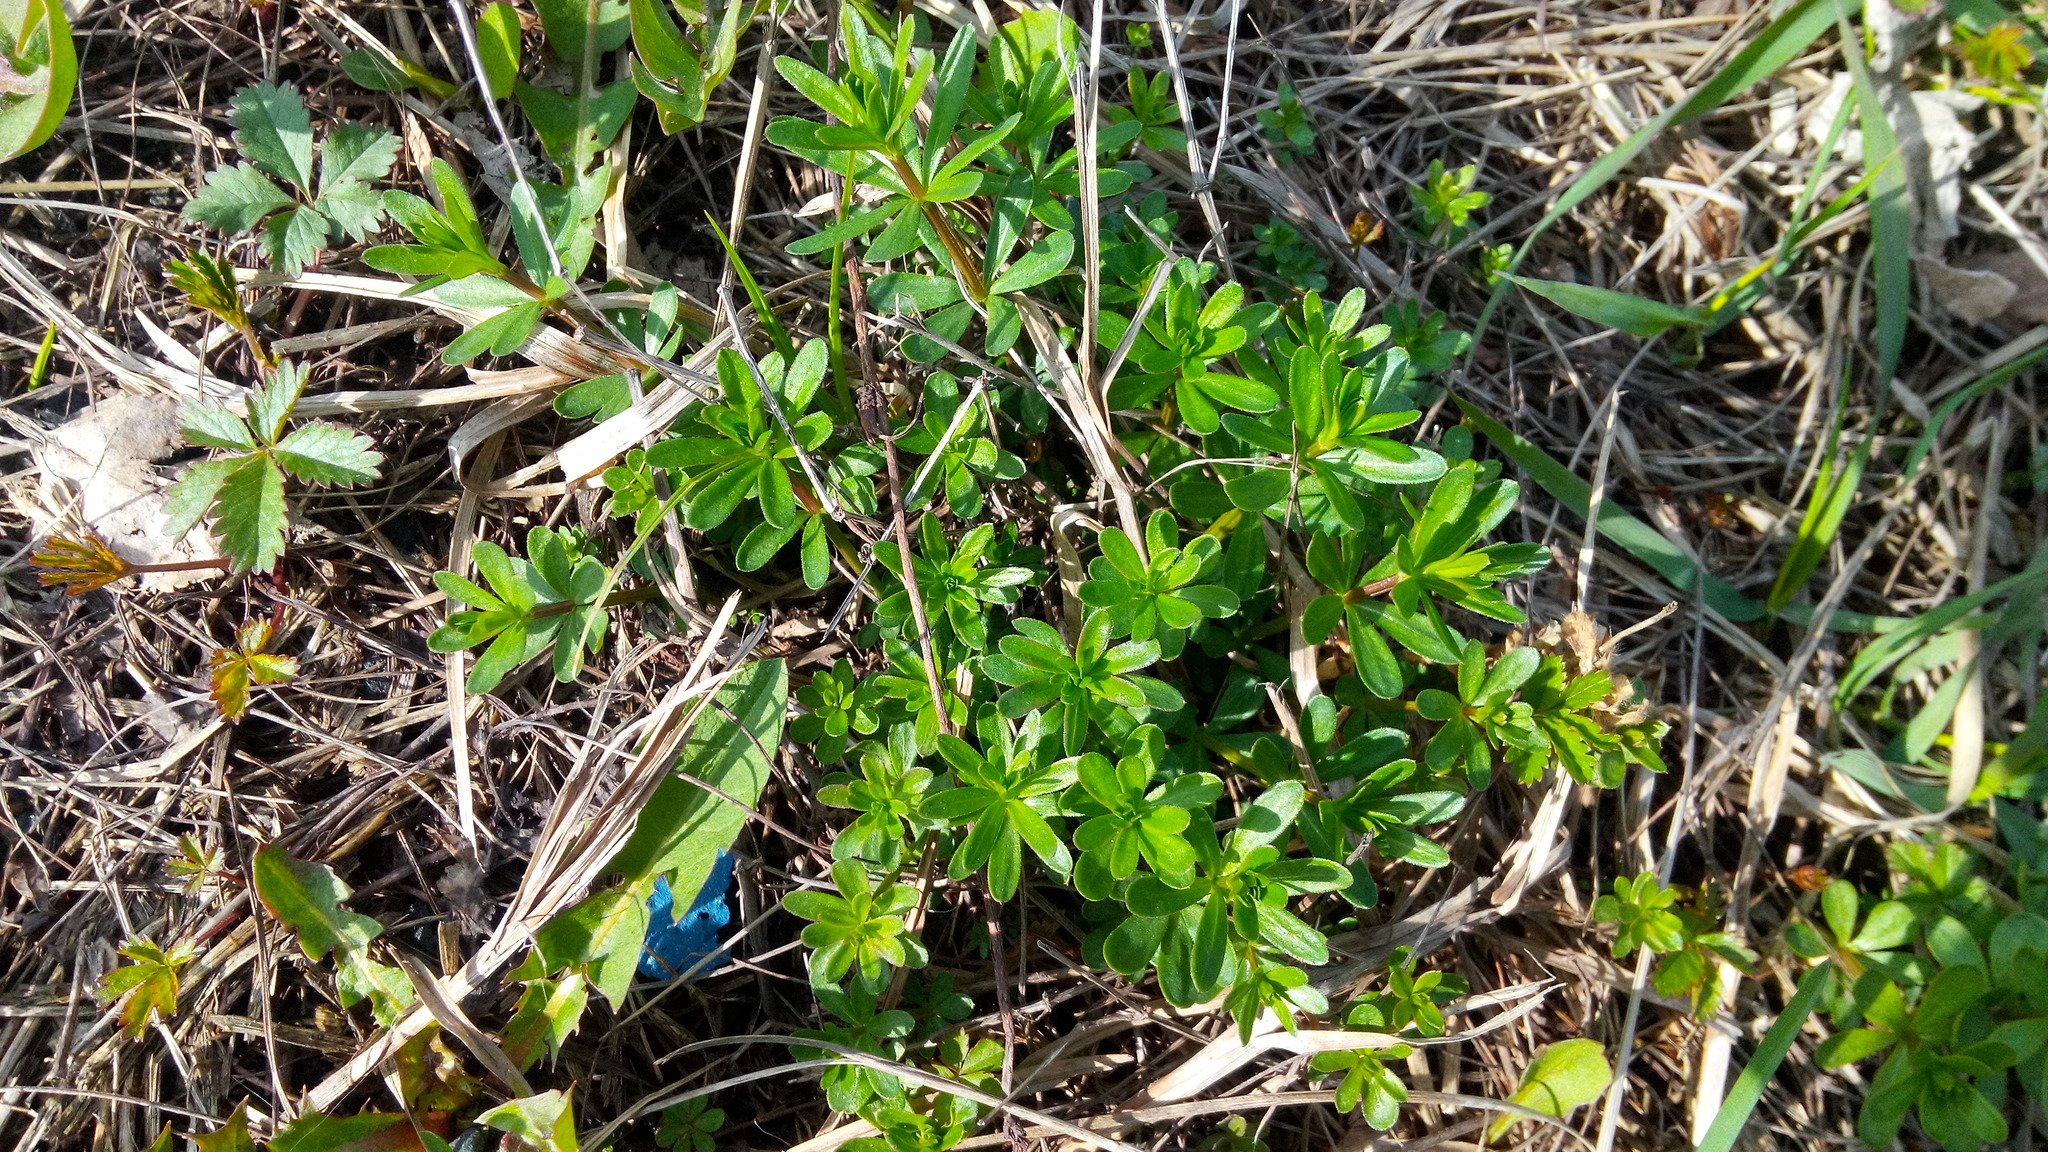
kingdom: Plantae
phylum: Tracheophyta
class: Magnoliopsida
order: Gentianales
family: Rubiaceae
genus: Galium
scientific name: Galium mollugo
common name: Hedge bedstraw
